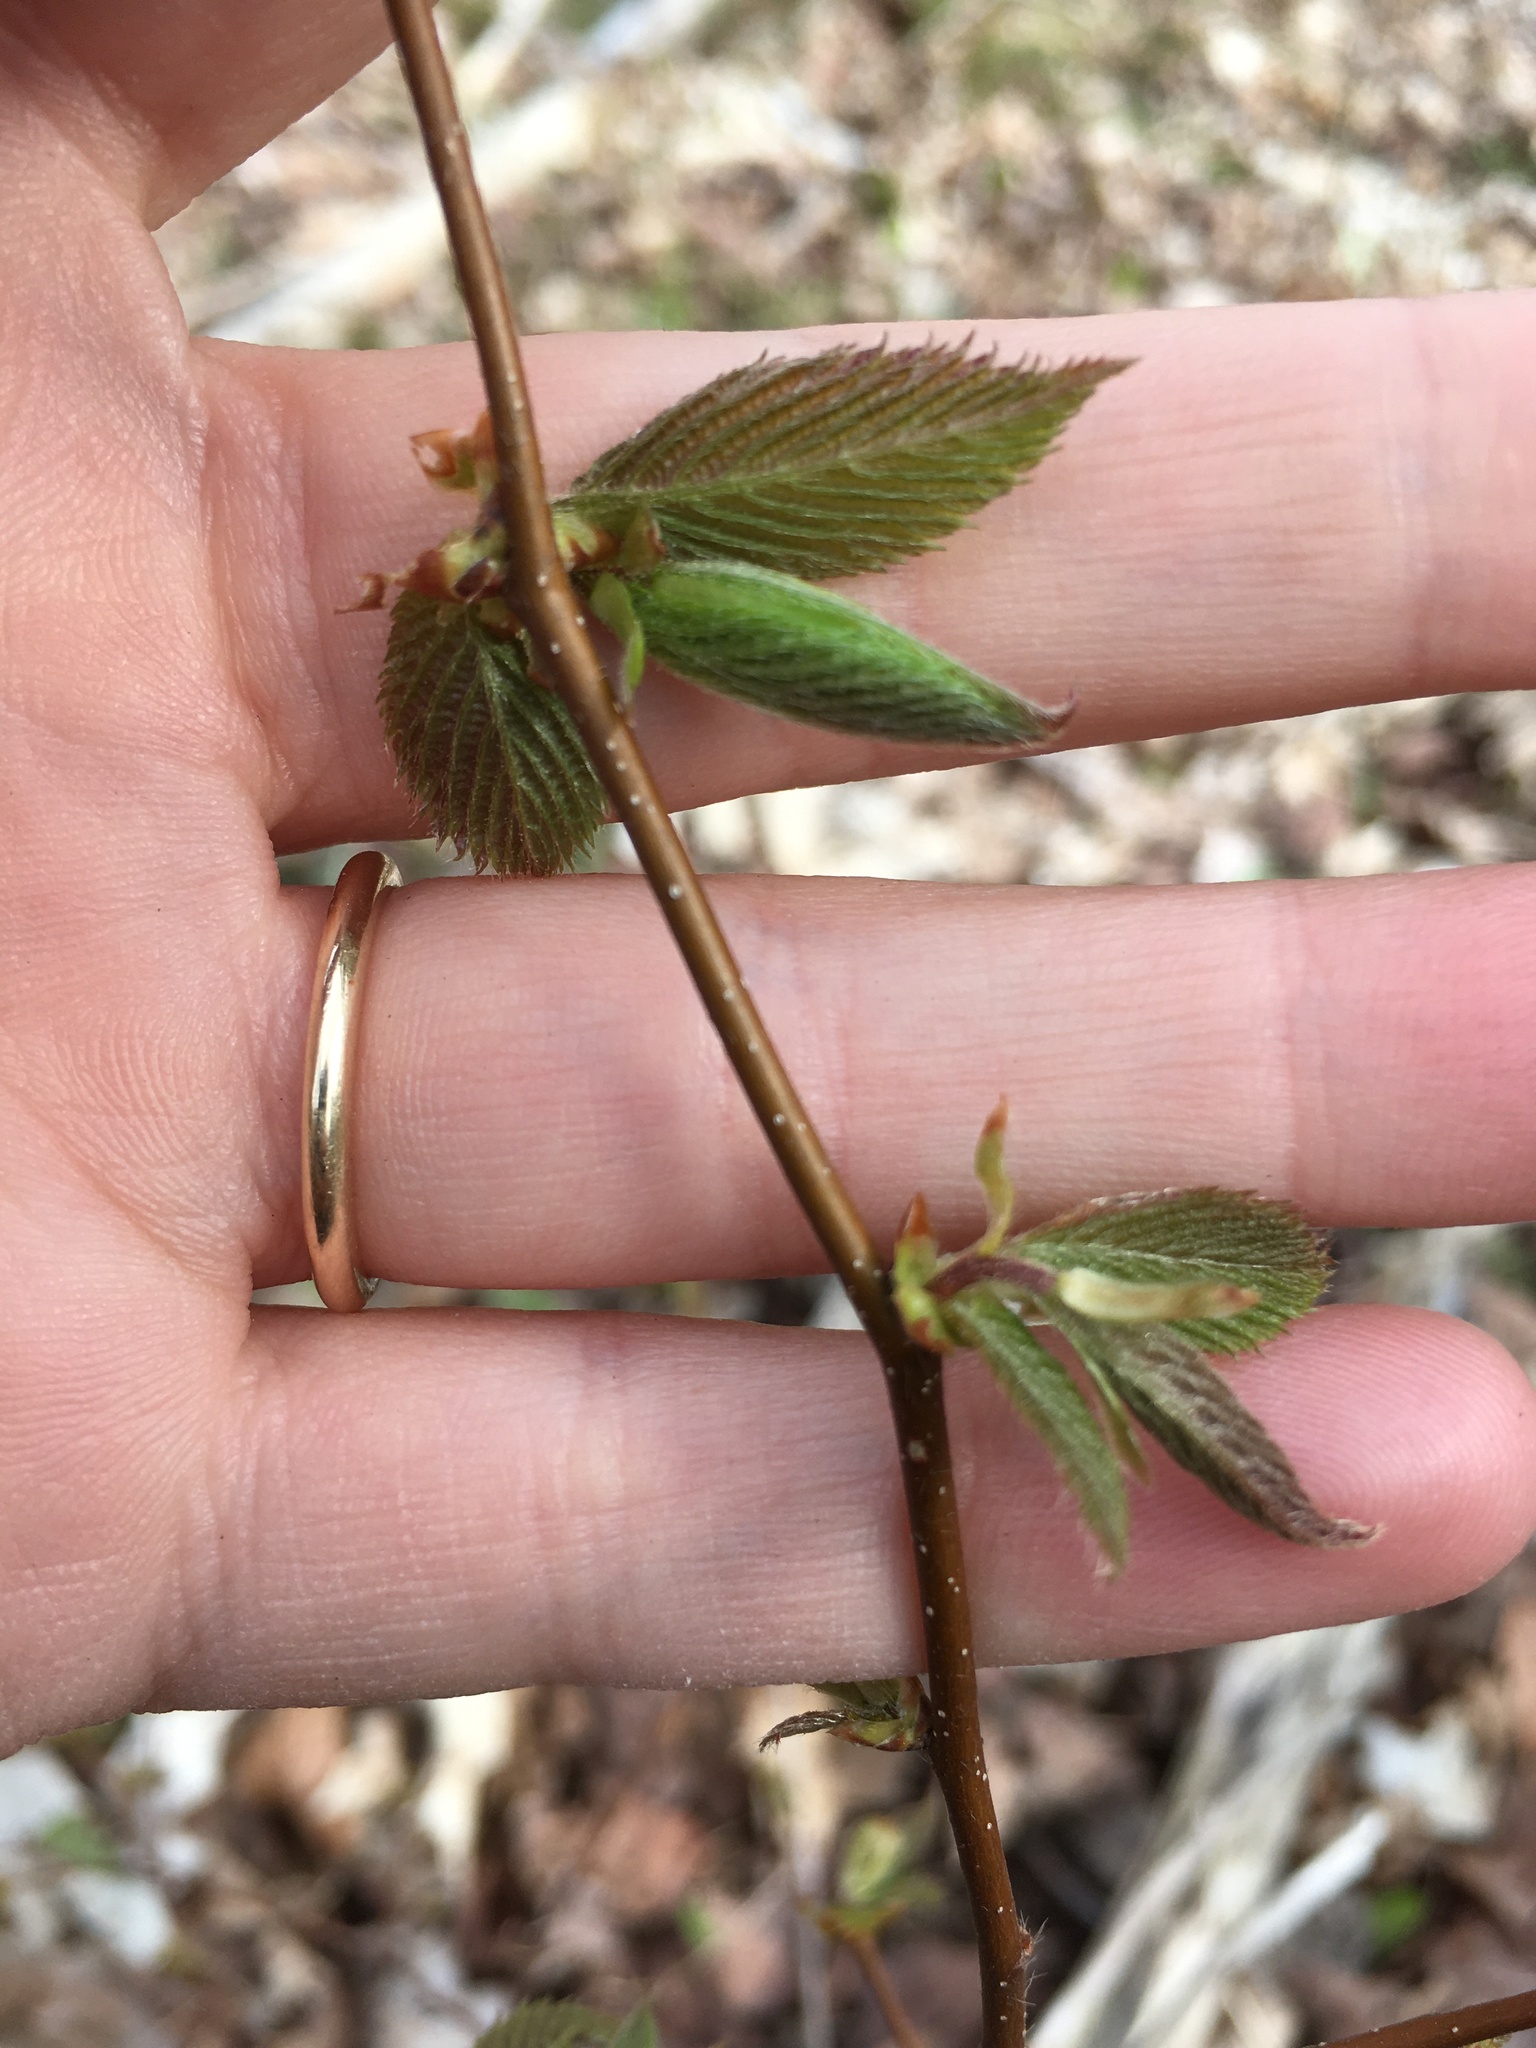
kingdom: Plantae
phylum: Tracheophyta
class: Magnoliopsida
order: Fagales
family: Betulaceae
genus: Ostrya
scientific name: Ostrya virginiana
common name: Ironwood
